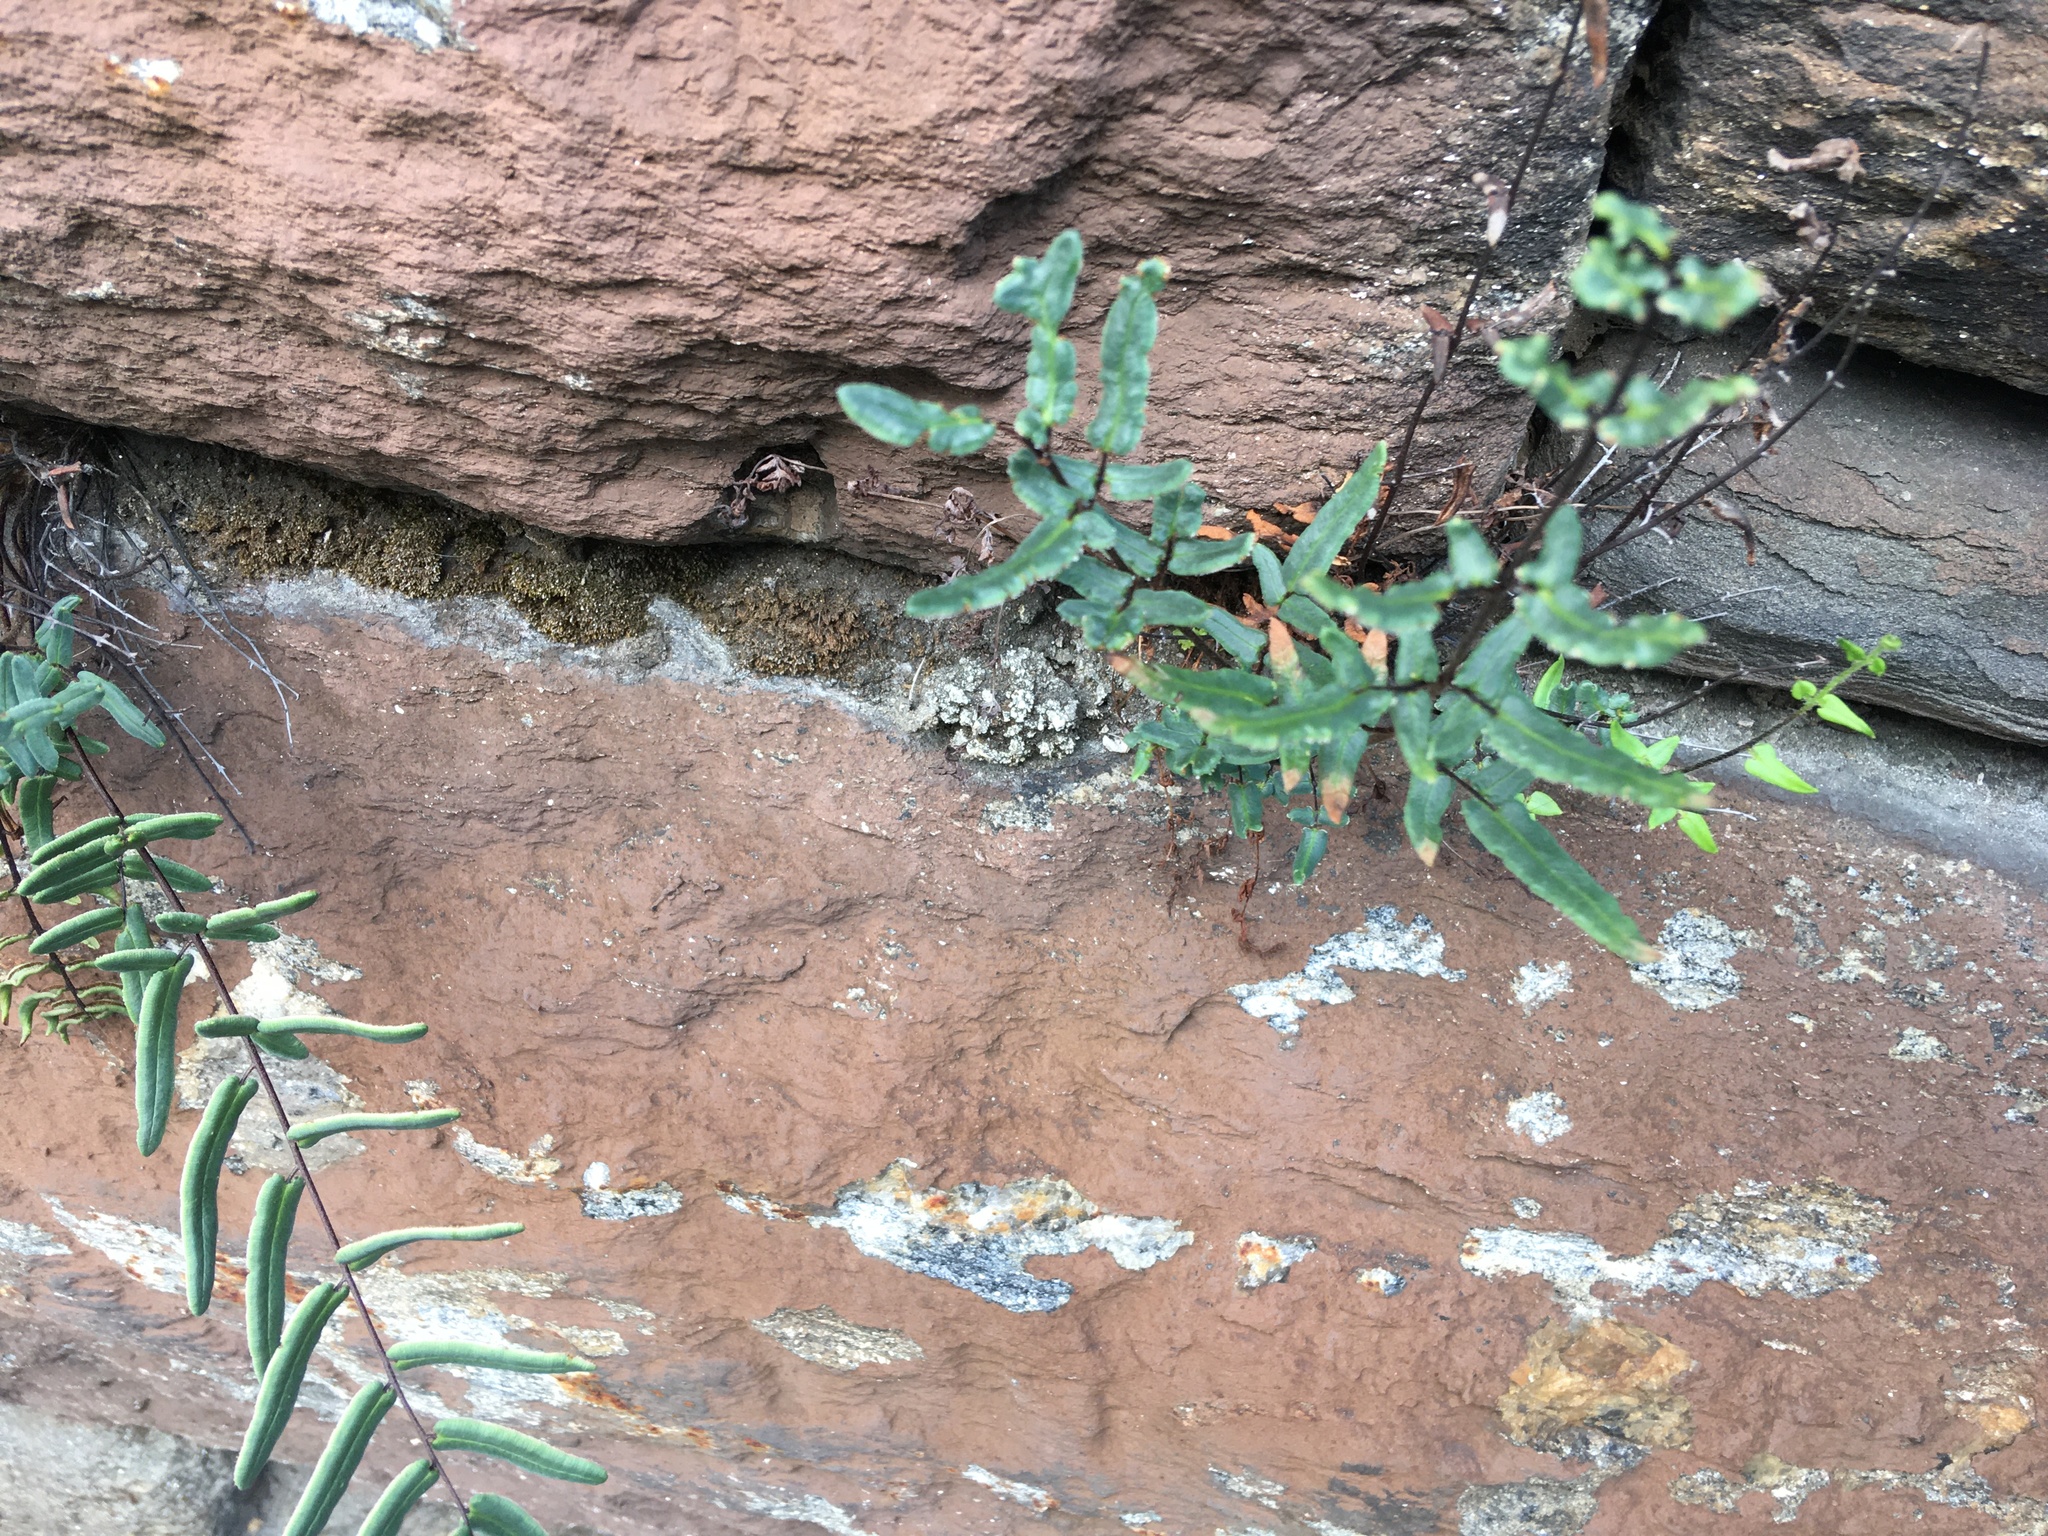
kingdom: Plantae
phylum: Tracheophyta
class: Polypodiopsida
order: Polypodiales
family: Pteridaceae
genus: Pellaea
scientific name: Pellaea atropurpurea
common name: Hairy cliffbrake
